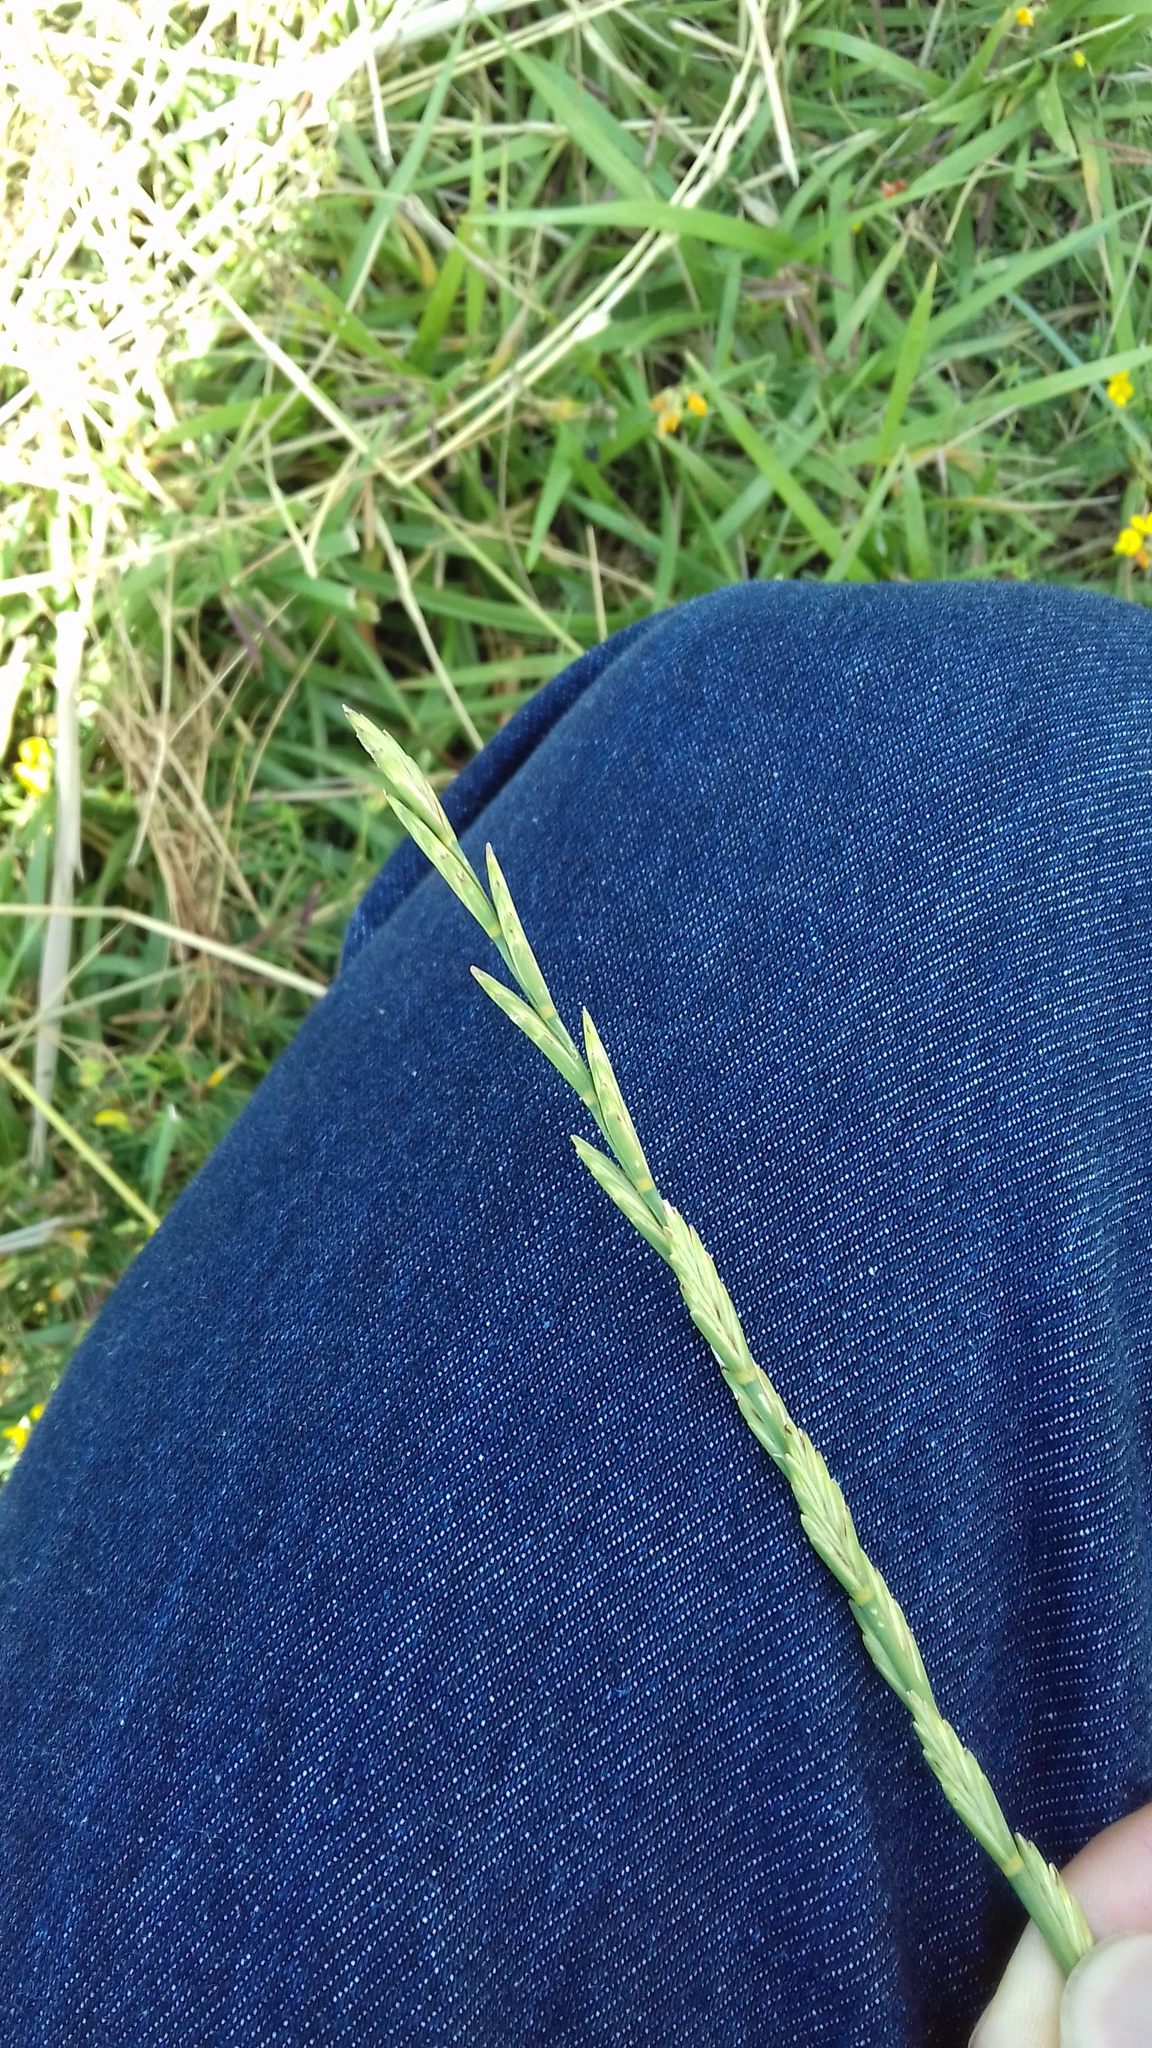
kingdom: Plantae
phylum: Tracheophyta
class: Liliopsida
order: Poales
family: Poaceae
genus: Elymus
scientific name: Elymus repens
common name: Quackgrass
